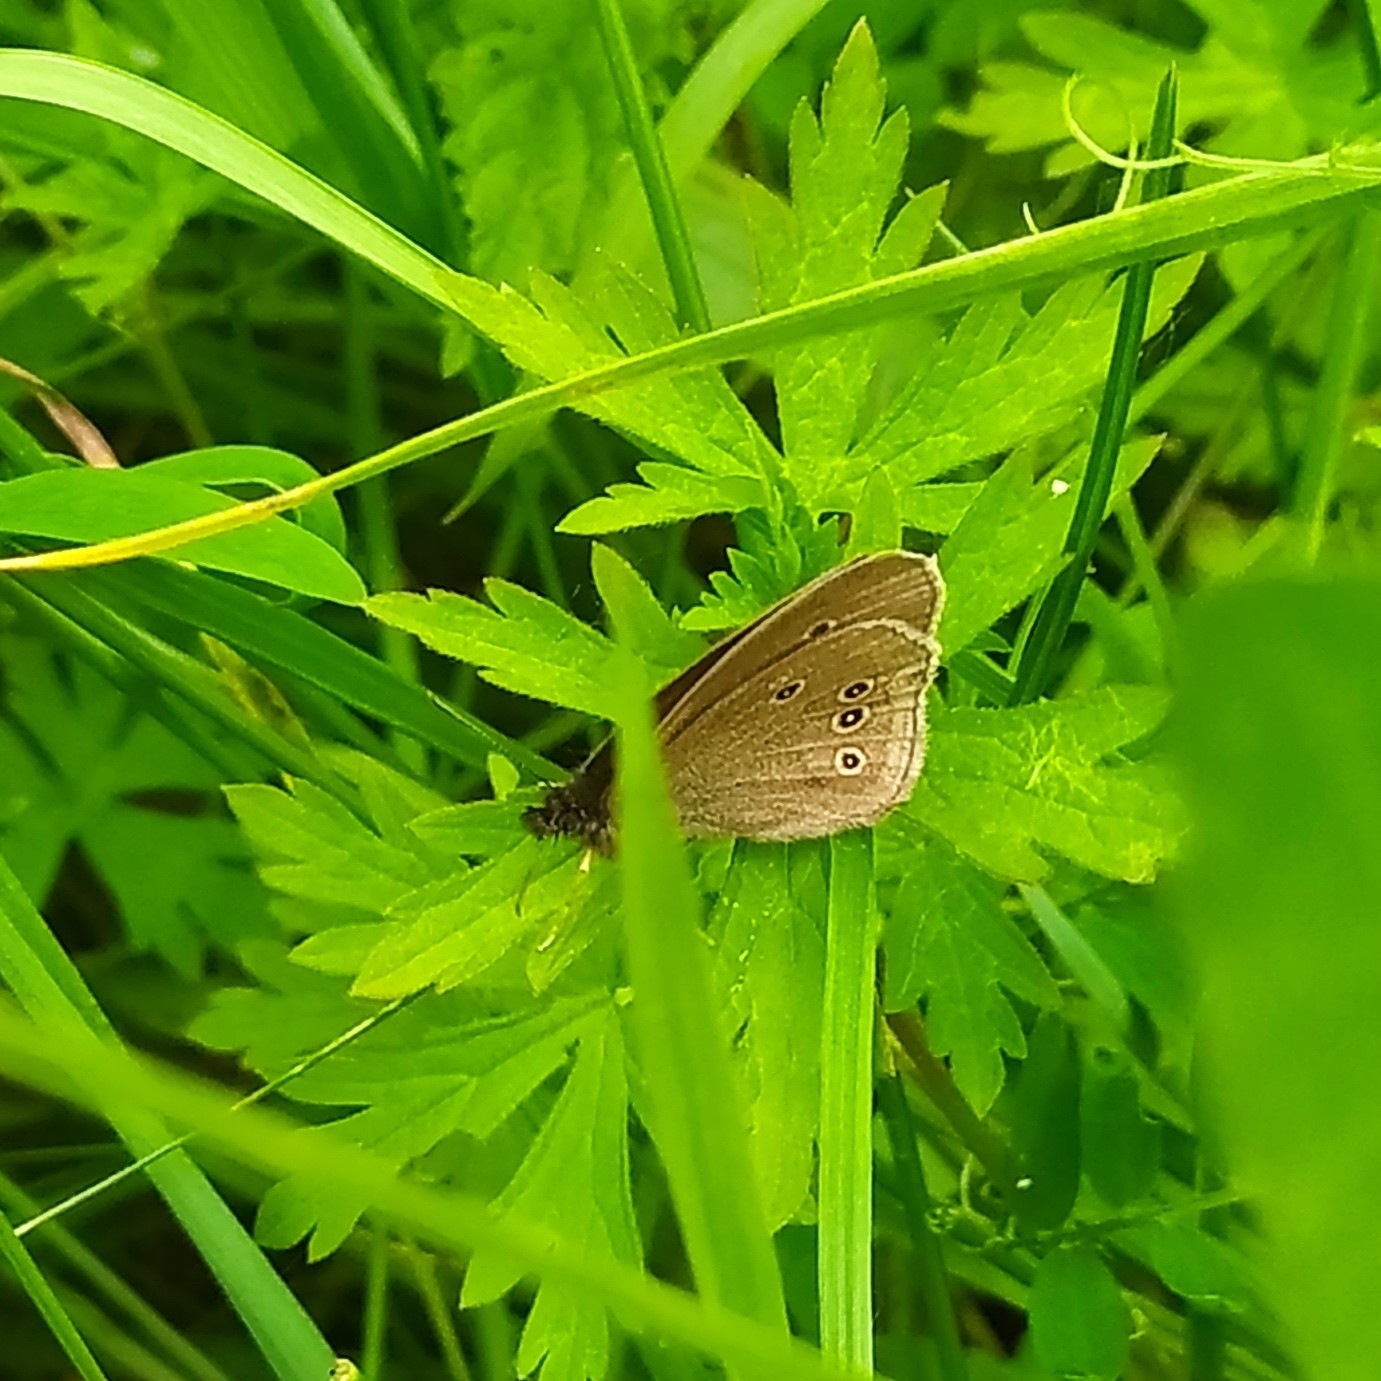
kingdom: Animalia
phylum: Arthropoda
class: Insecta
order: Lepidoptera
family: Nymphalidae
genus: Aphantopus
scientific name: Aphantopus hyperantus
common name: Ringlet
